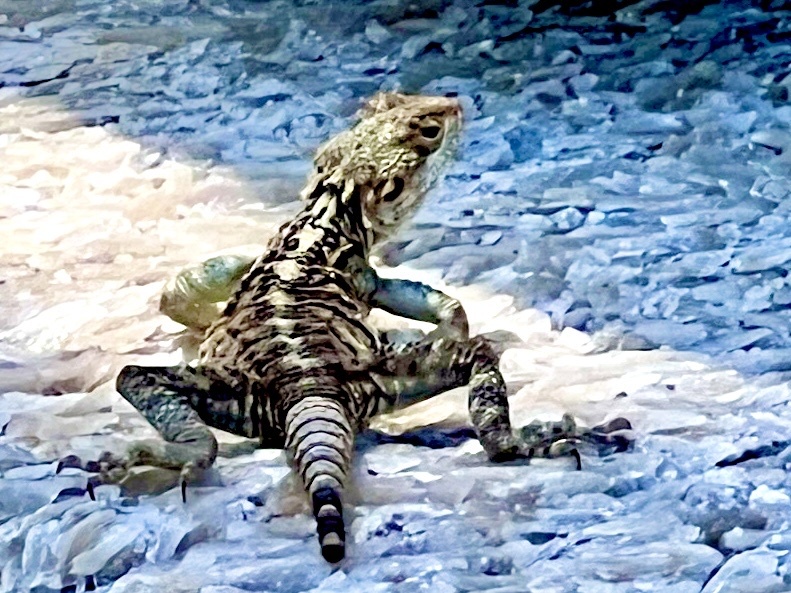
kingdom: Animalia
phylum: Chordata
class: Squamata
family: Agamidae
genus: Laudakia
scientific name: Laudakia
